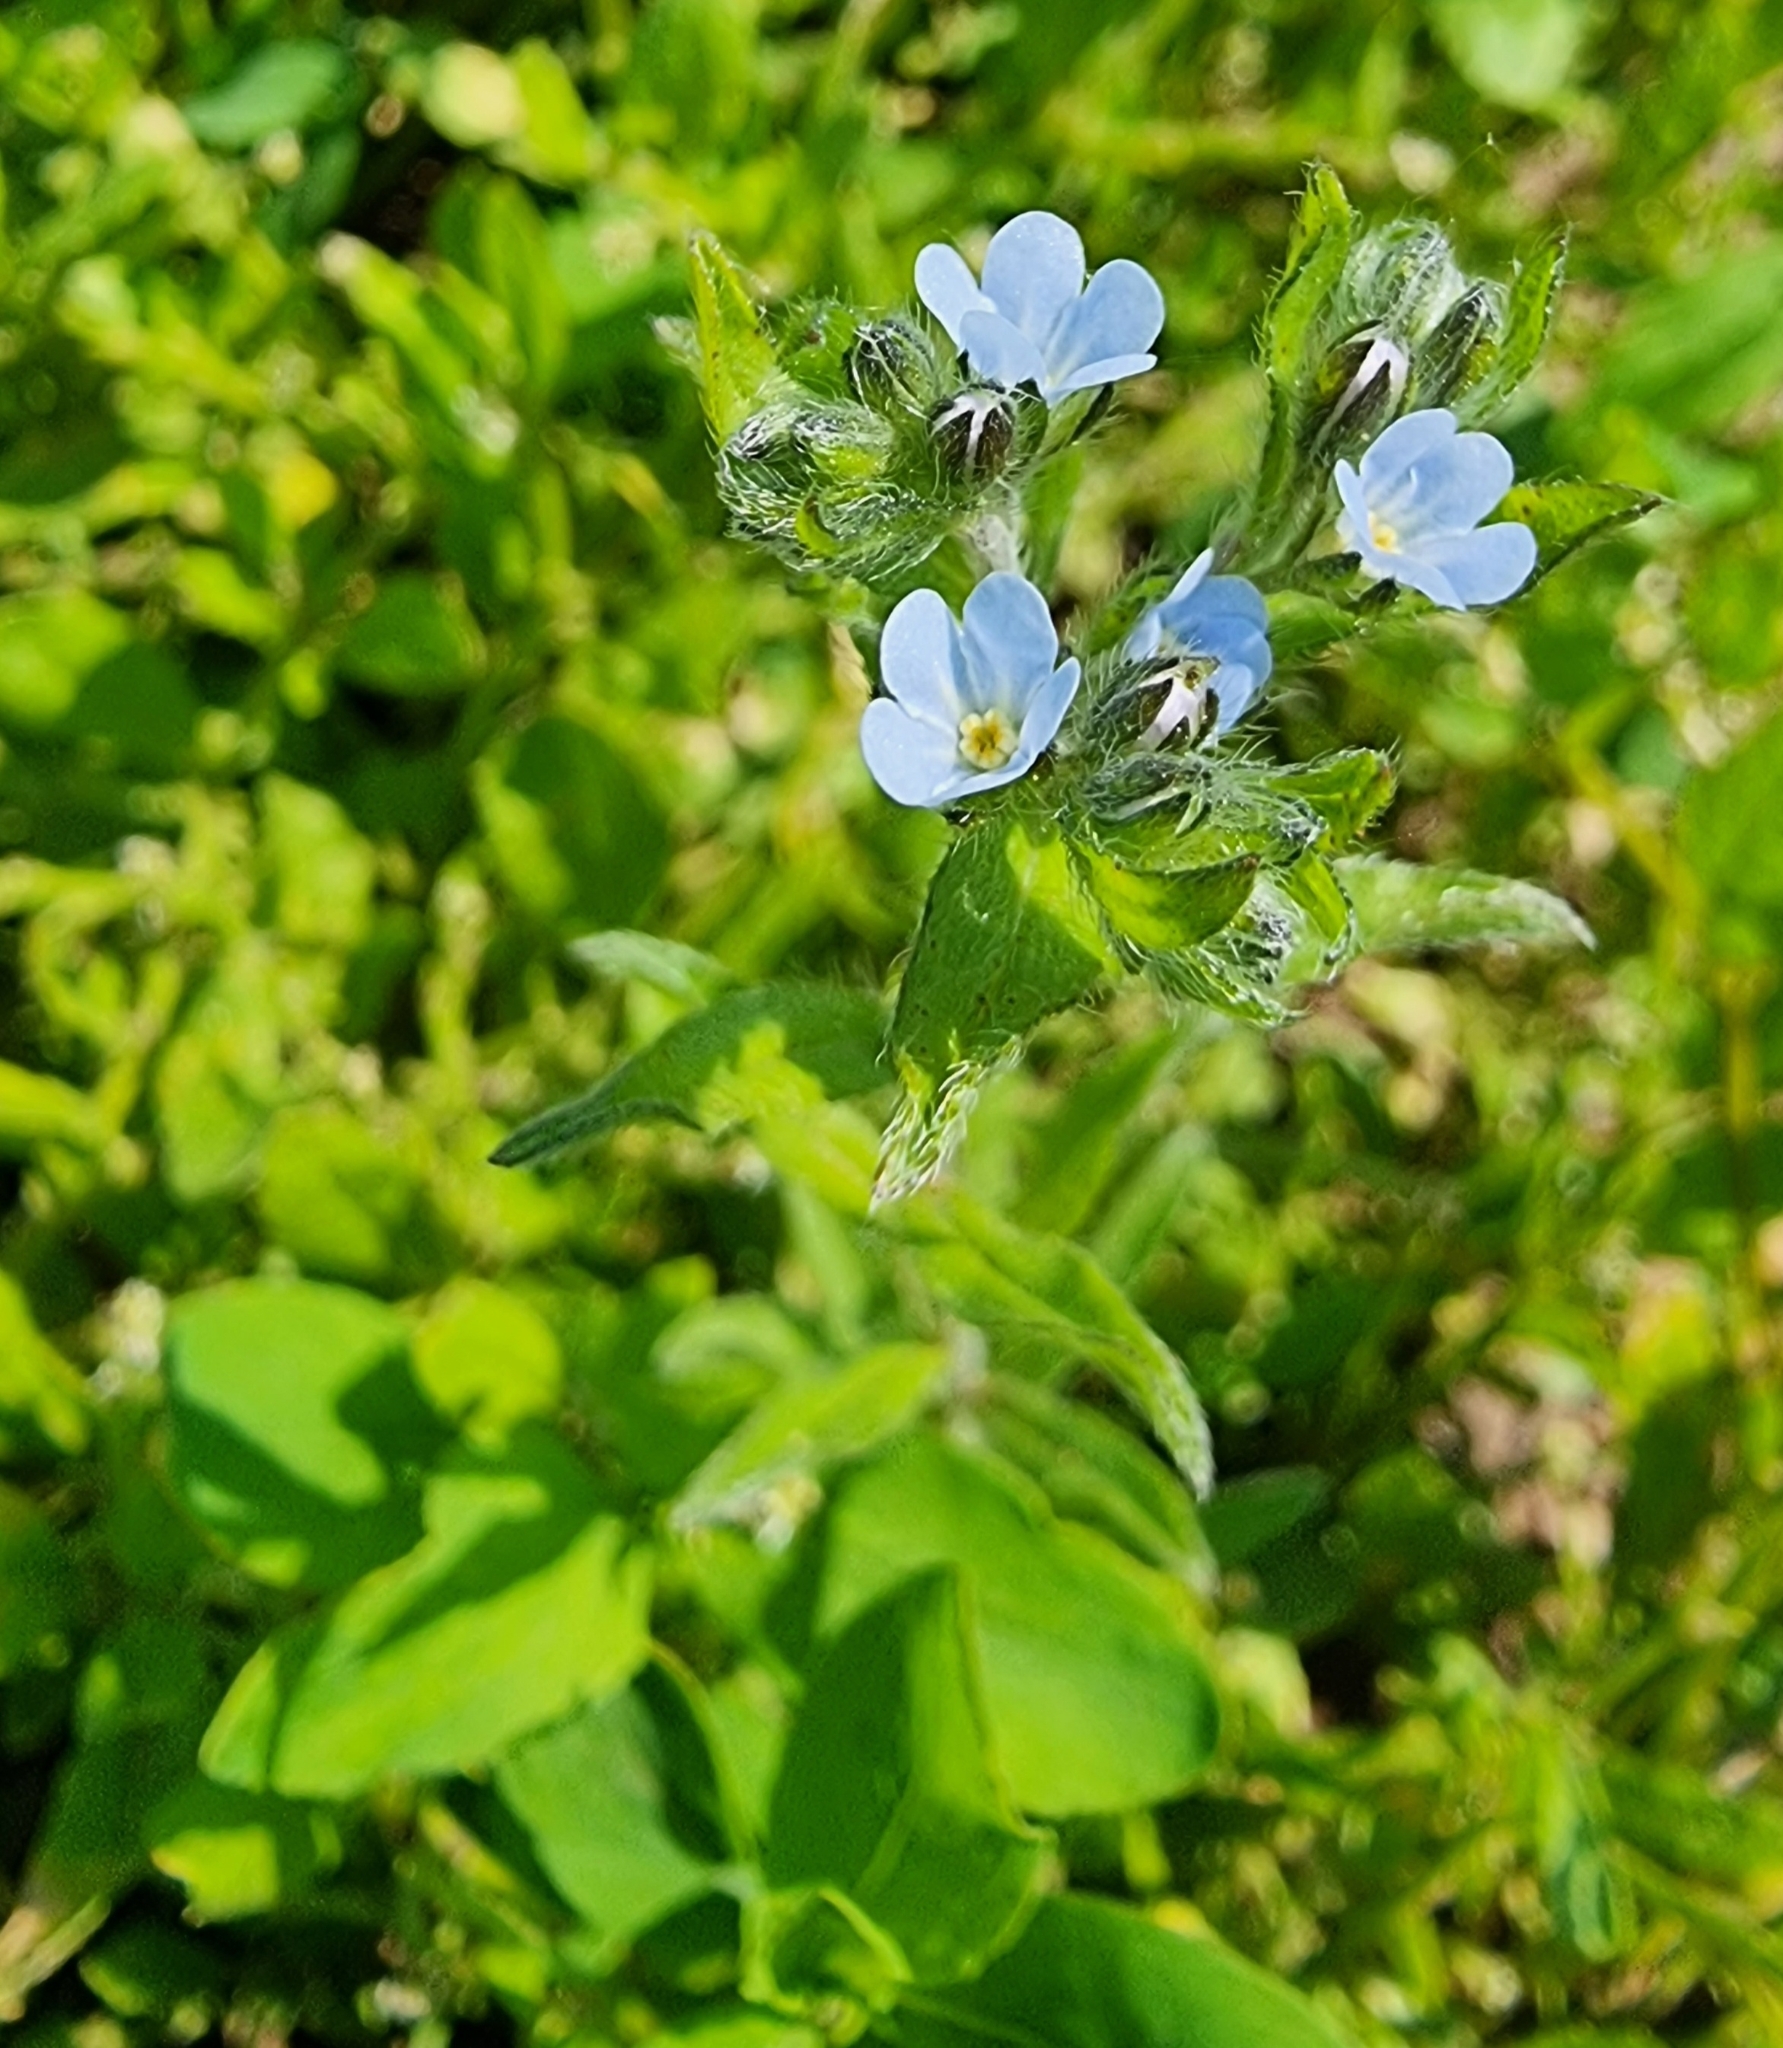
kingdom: Plantae
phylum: Tracheophyta
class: Magnoliopsida
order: Boraginales
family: Boraginaceae
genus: Lappula
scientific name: Lappula squarrosa
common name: European stickseed
